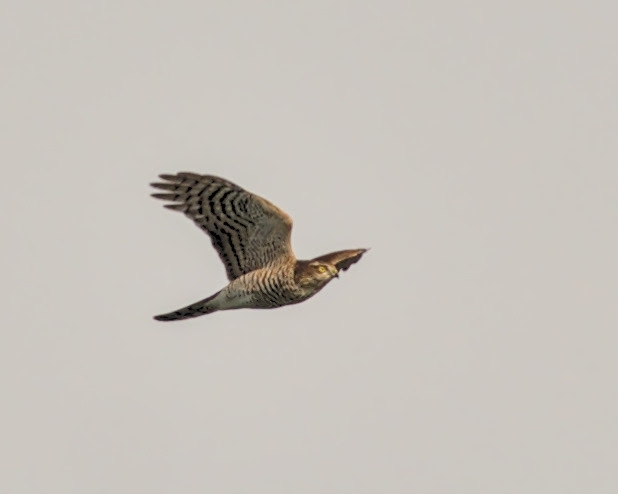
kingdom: Animalia
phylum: Chordata
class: Aves
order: Accipitriformes
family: Accipitridae
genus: Accipiter
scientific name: Accipiter nisus
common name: Eurasian sparrowhawk
